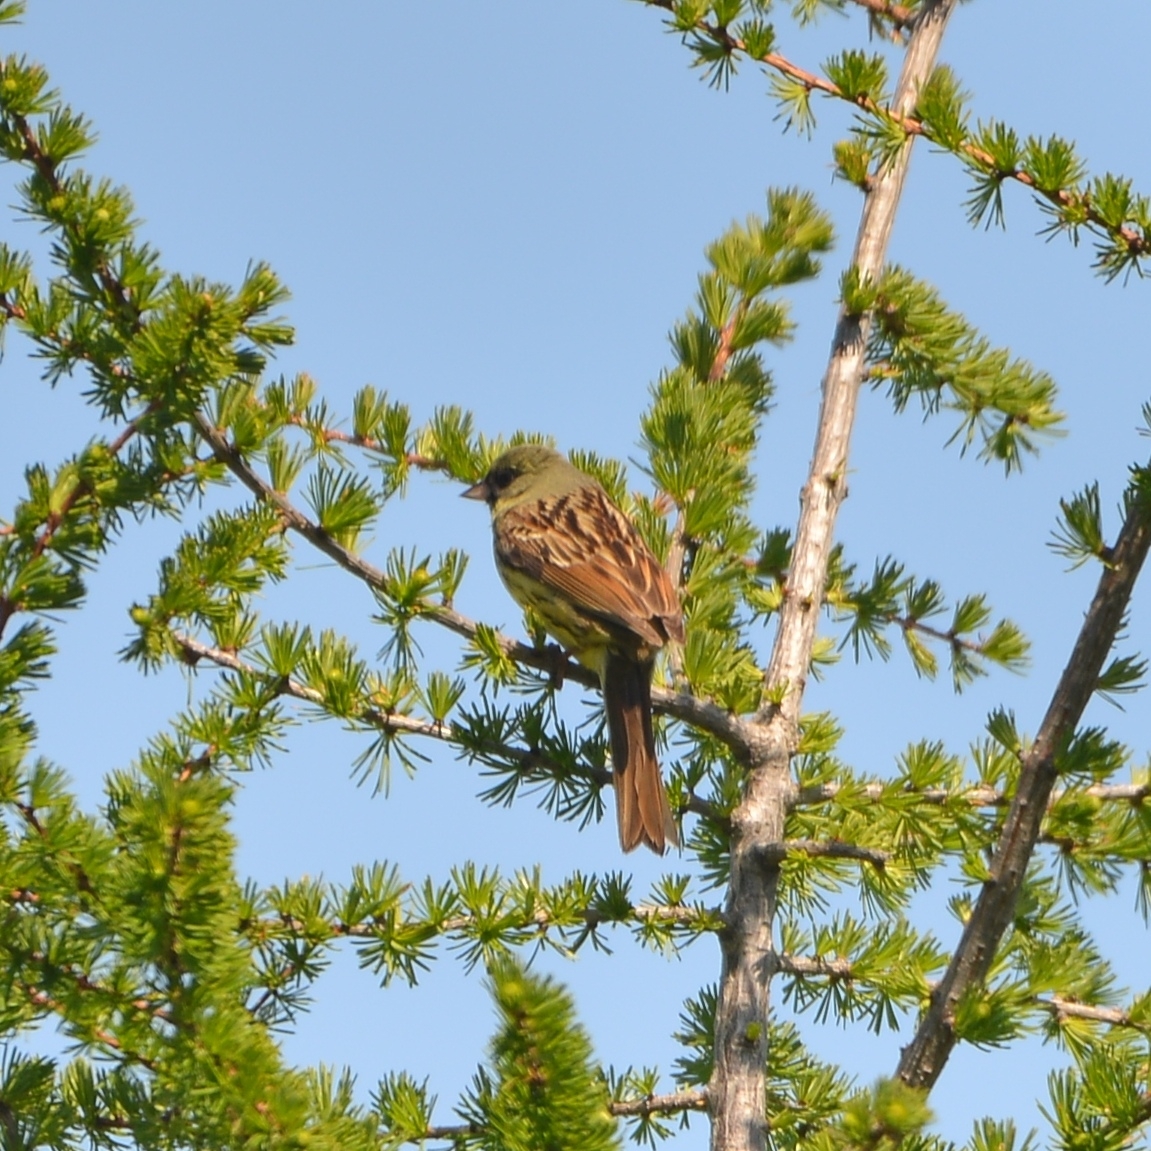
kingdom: Animalia
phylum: Chordata
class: Aves
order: Passeriformes
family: Emberizidae
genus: Emberiza
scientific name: Emberiza personata
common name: Masked bunting
